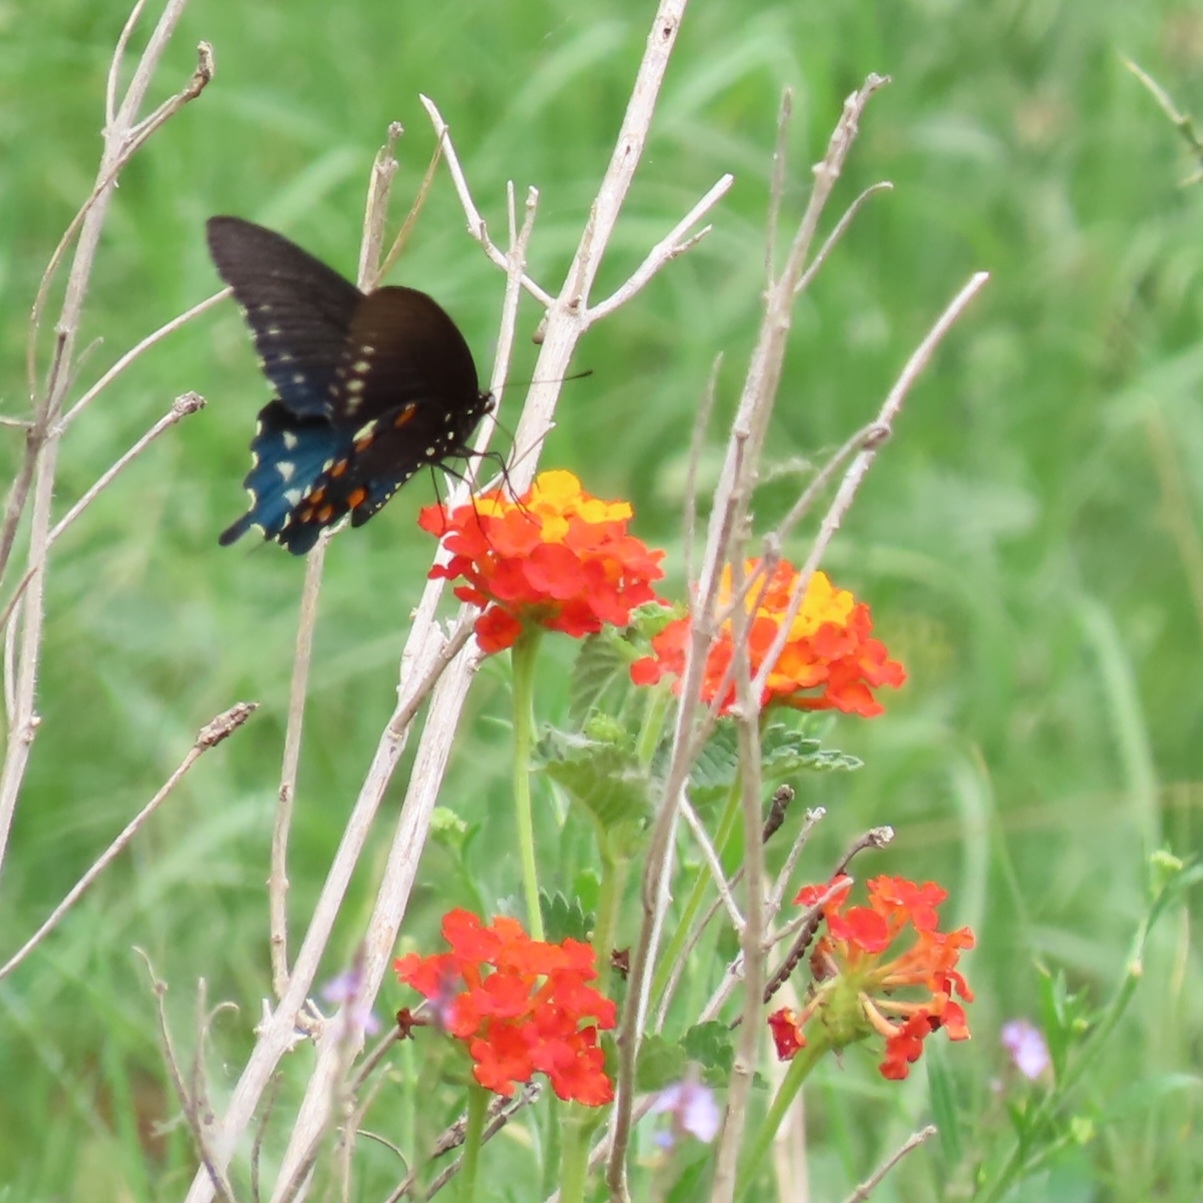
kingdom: Animalia
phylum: Arthropoda
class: Insecta
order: Lepidoptera
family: Papilionidae
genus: Battus
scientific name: Battus philenor
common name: Pipevine swallowtail
